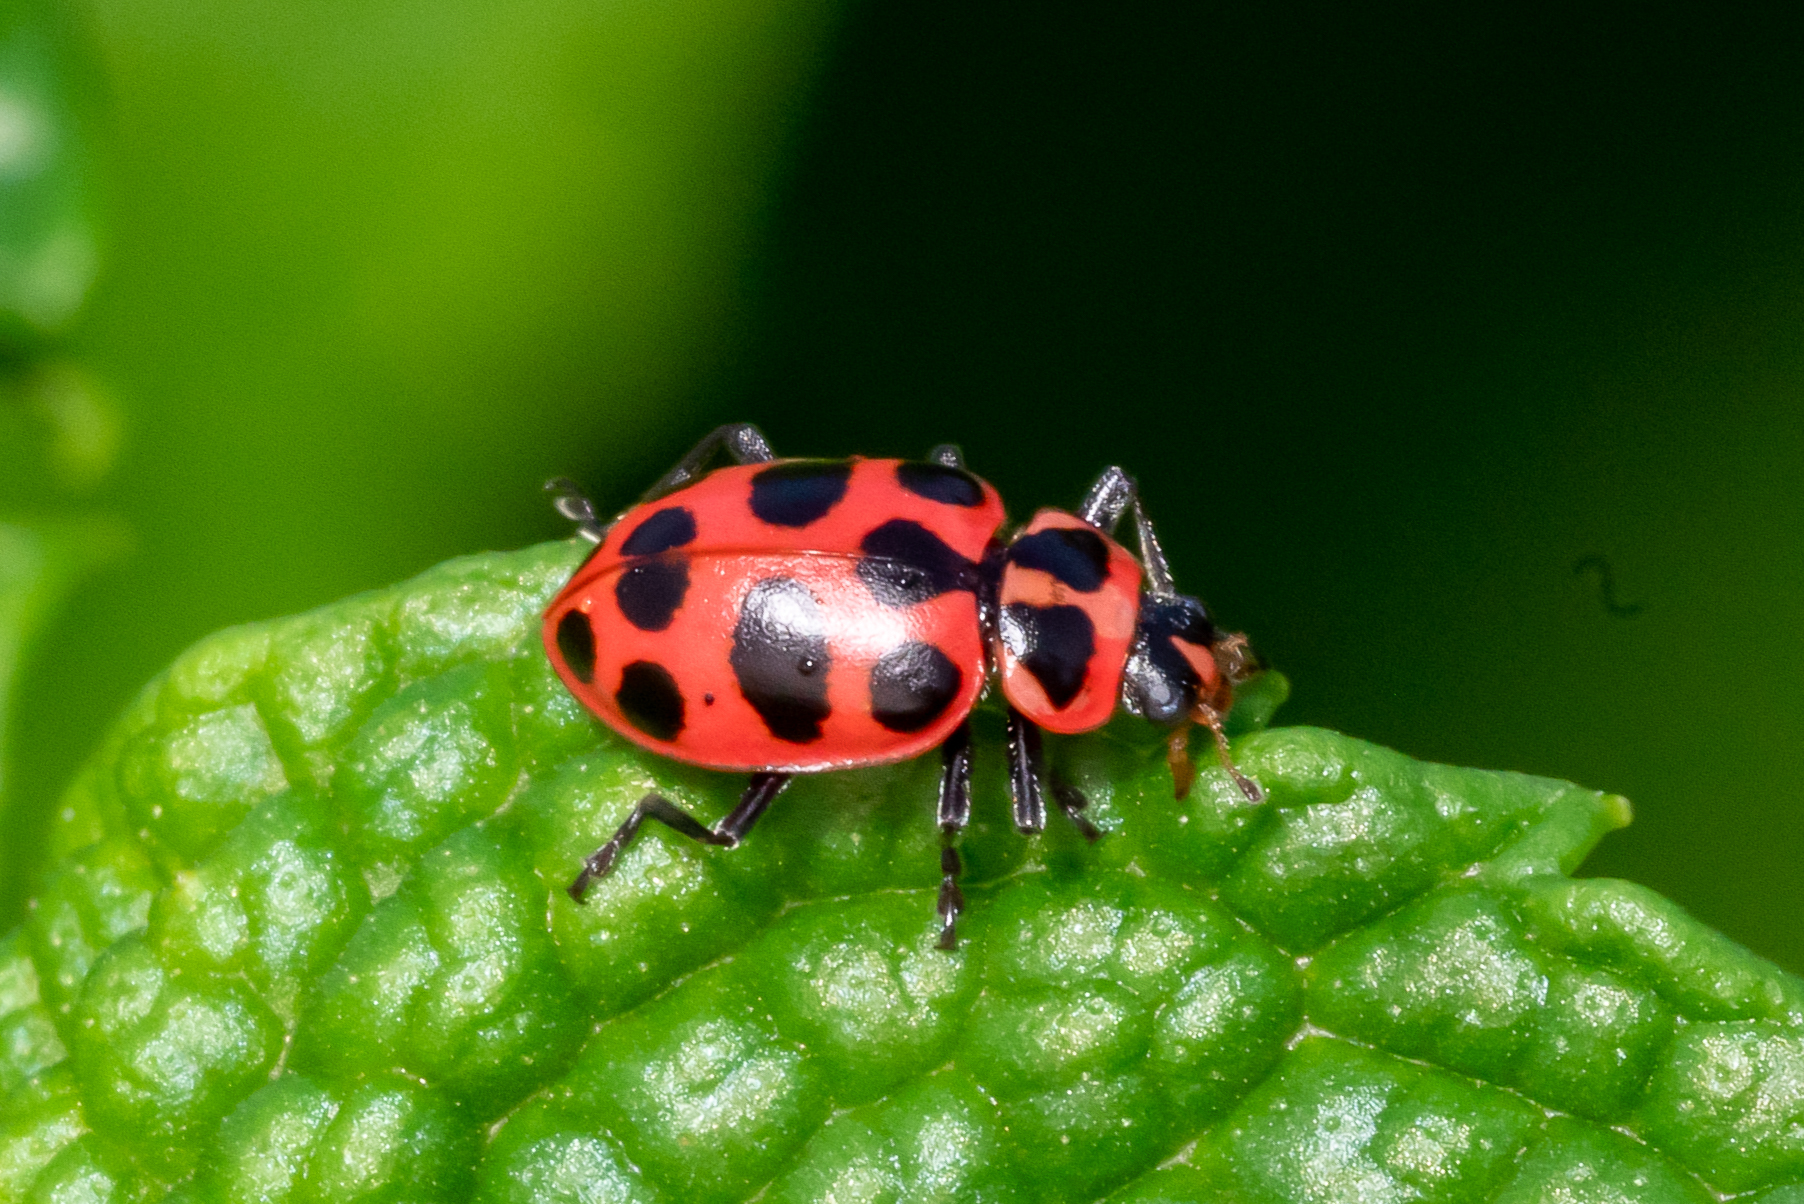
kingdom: Animalia
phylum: Arthropoda
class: Insecta
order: Coleoptera
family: Coccinellidae
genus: Coleomegilla
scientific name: Coleomegilla maculata
